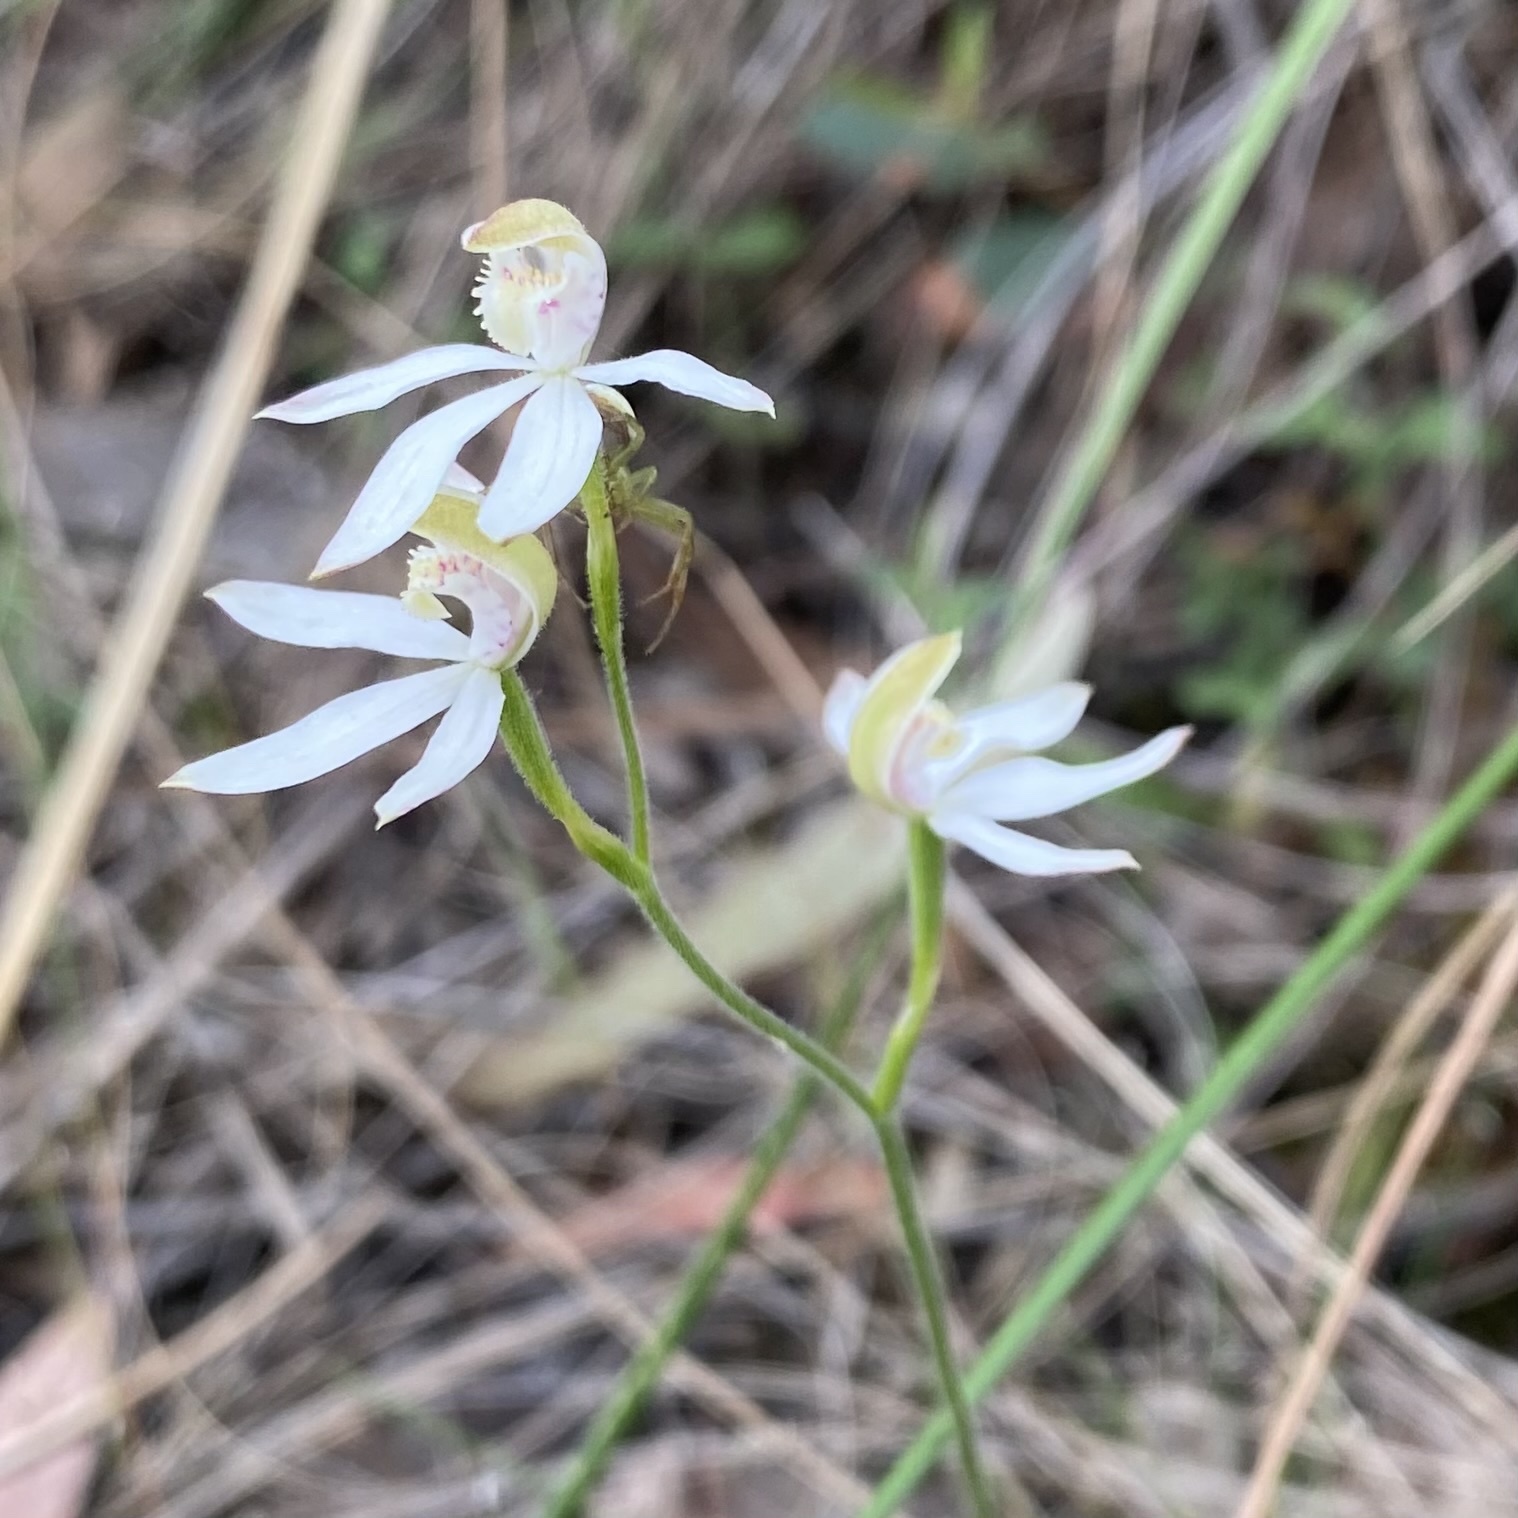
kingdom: Plantae
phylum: Tracheophyta
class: Liliopsida
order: Asparagales
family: Orchidaceae
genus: Caladenia
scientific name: Caladenia moschata
